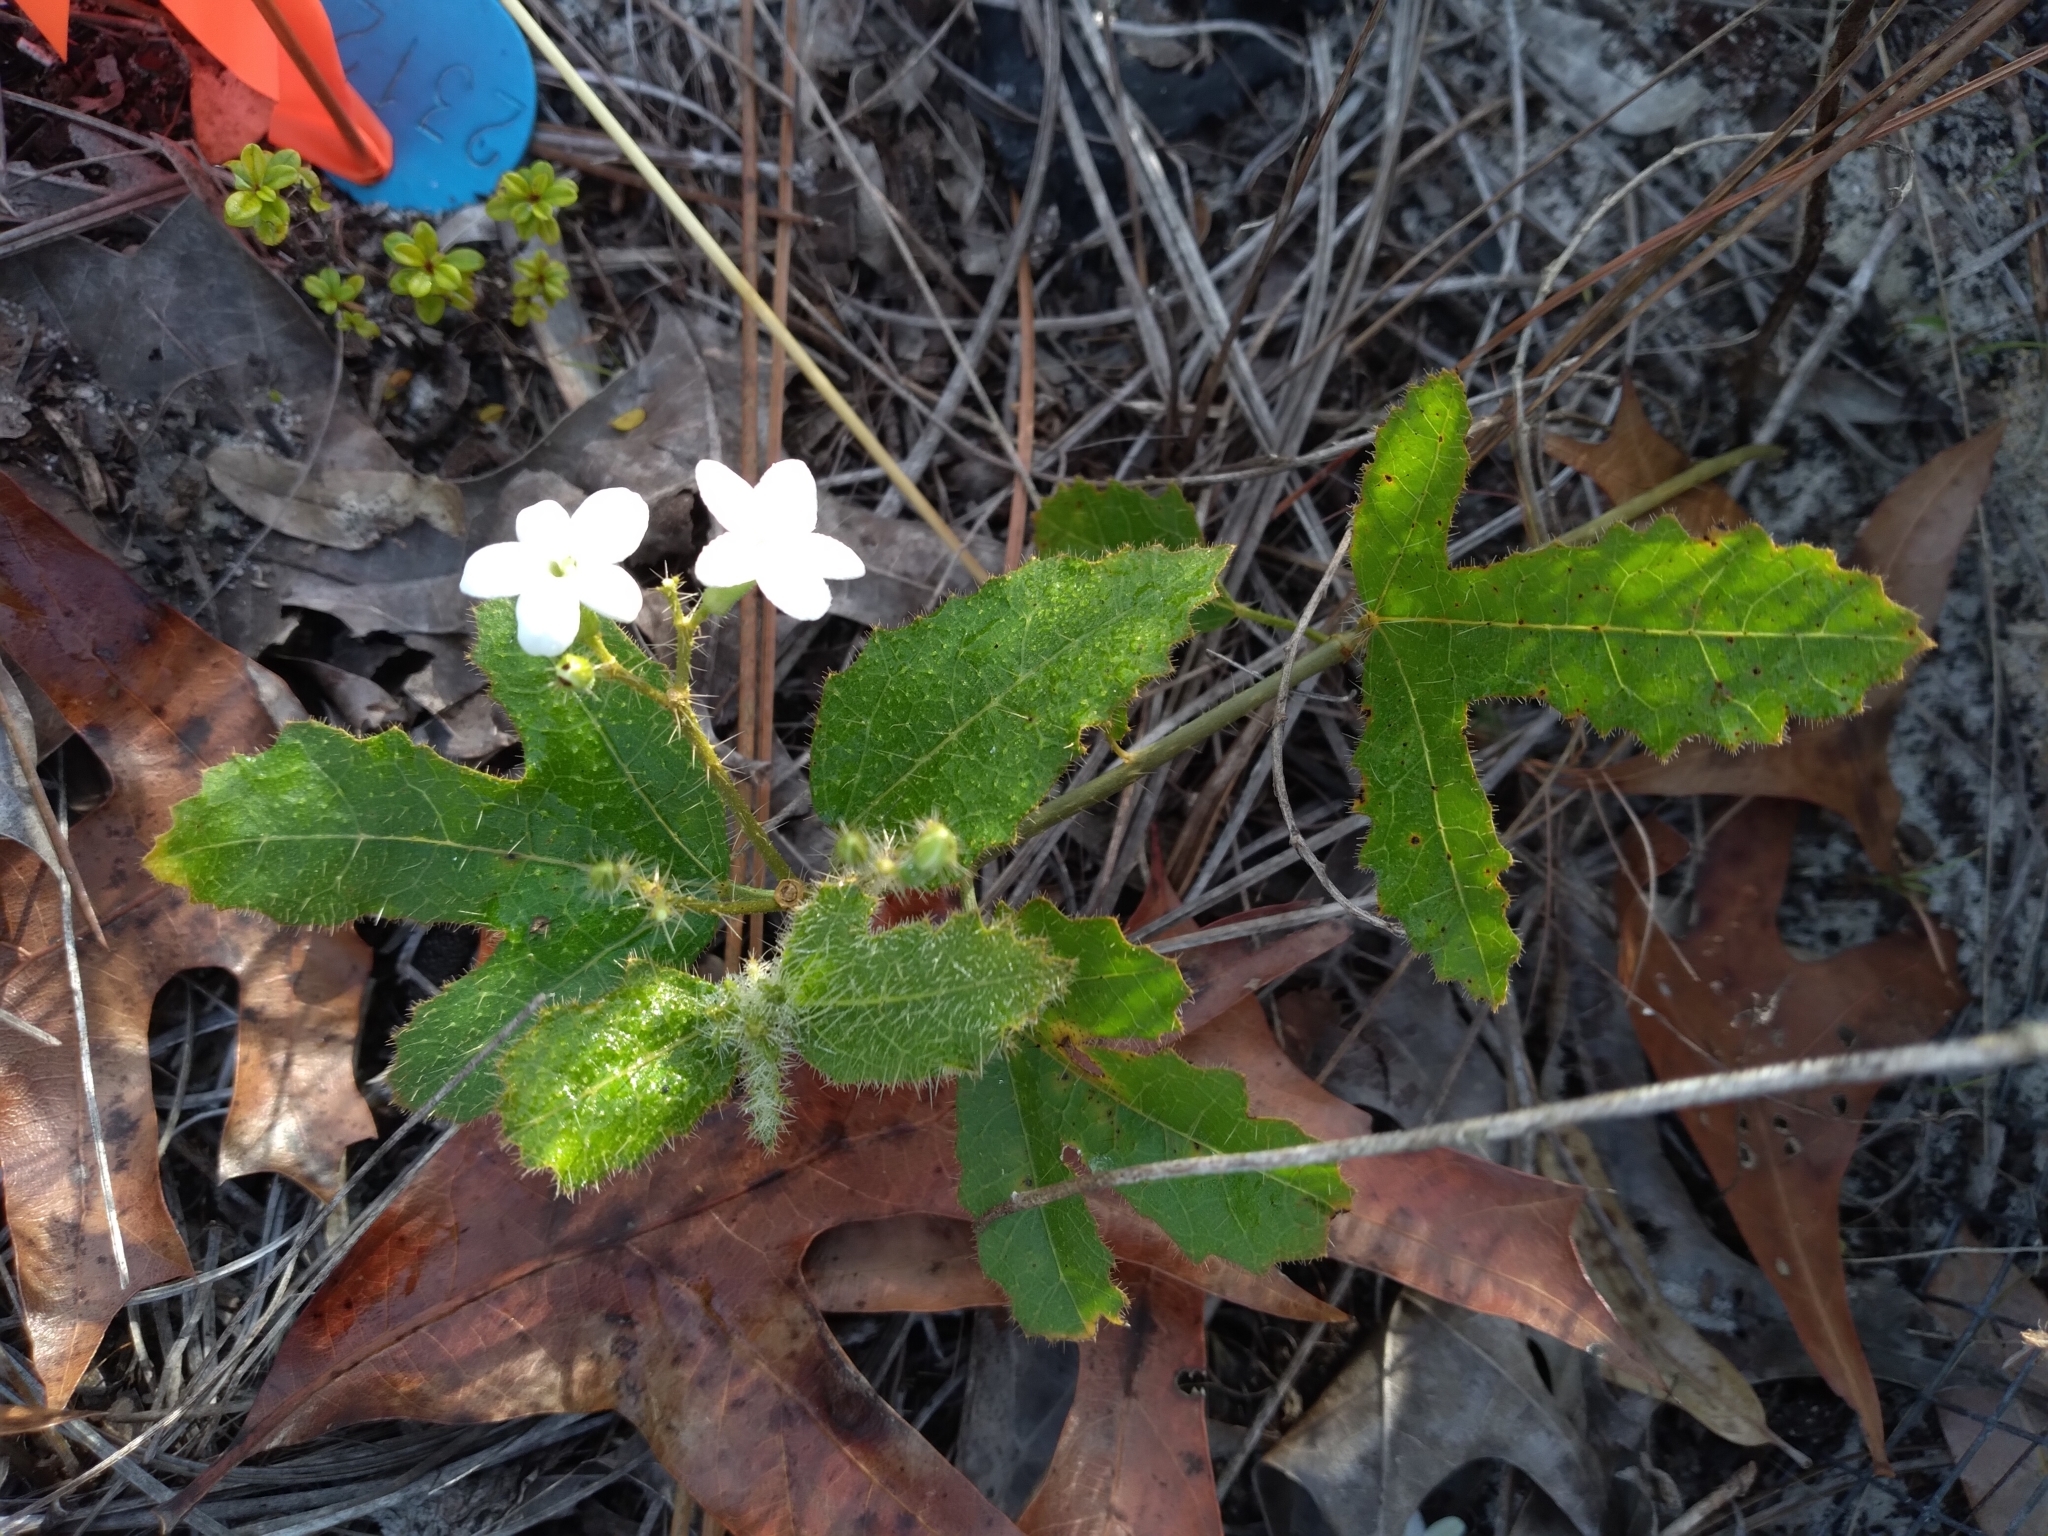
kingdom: Plantae
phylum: Tracheophyta
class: Magnoliopsida
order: Malpighiales
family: Euphorbiaceae
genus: Cnidoscolus
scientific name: Cnidoscolus stimulosus
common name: Bull-nettle
